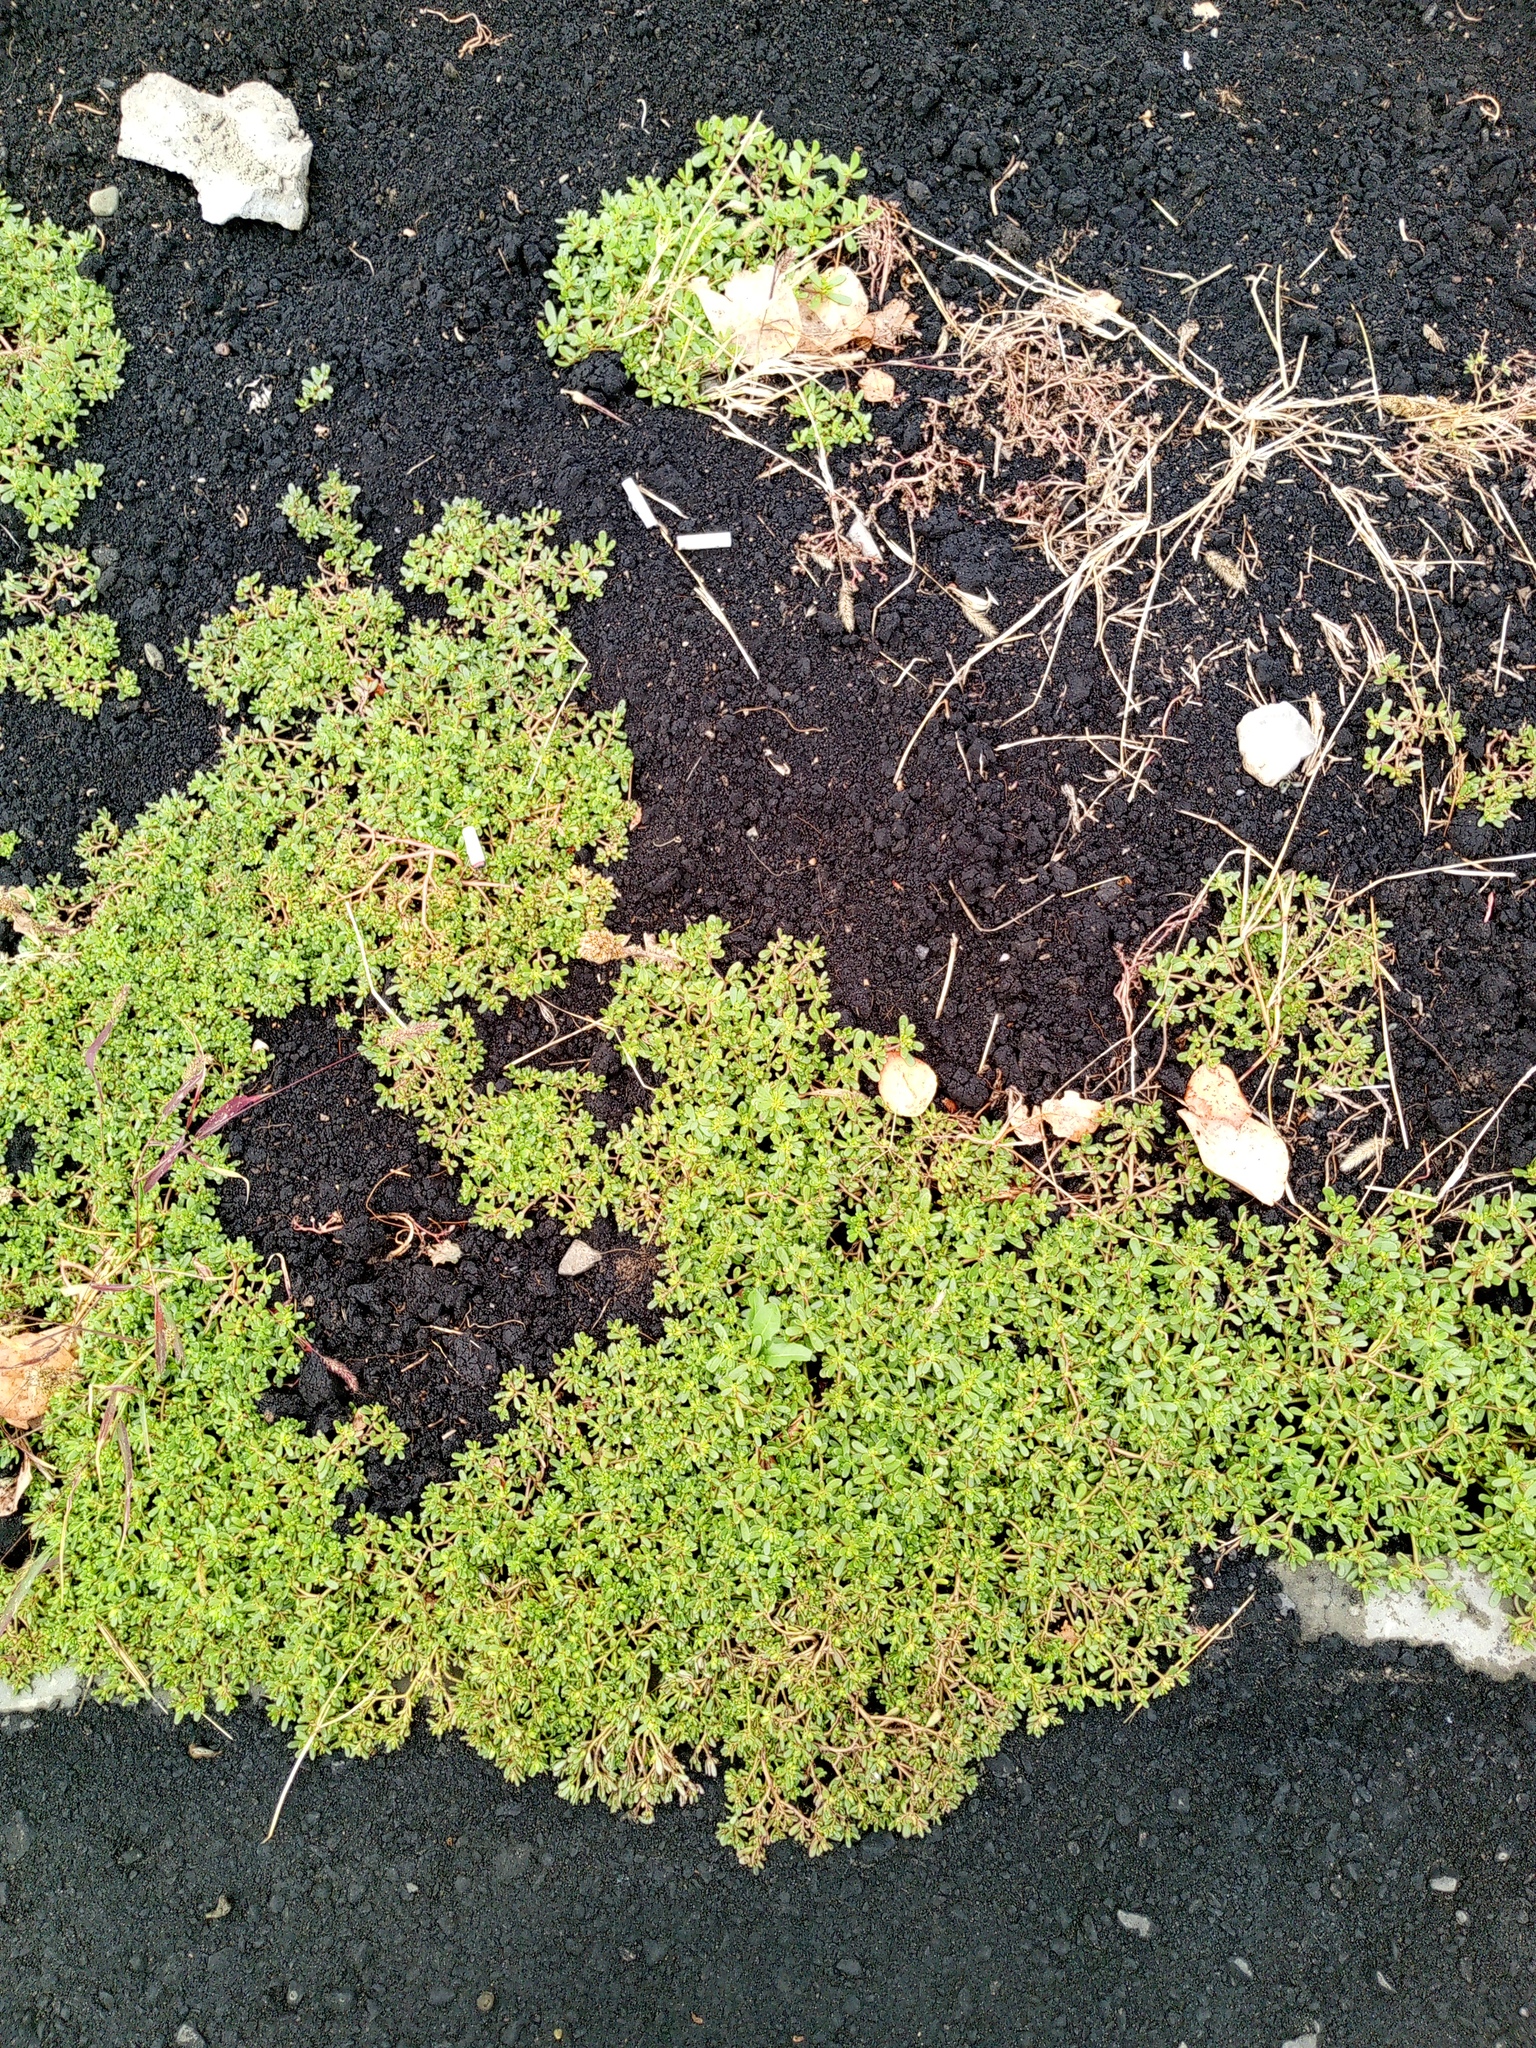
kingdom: Plantae
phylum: Tracheophyta
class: Magnoliopsida
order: Caryophyllales
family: Portulacaceae
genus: Portulaca
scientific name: Portulaca oleracea
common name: Common purslane
